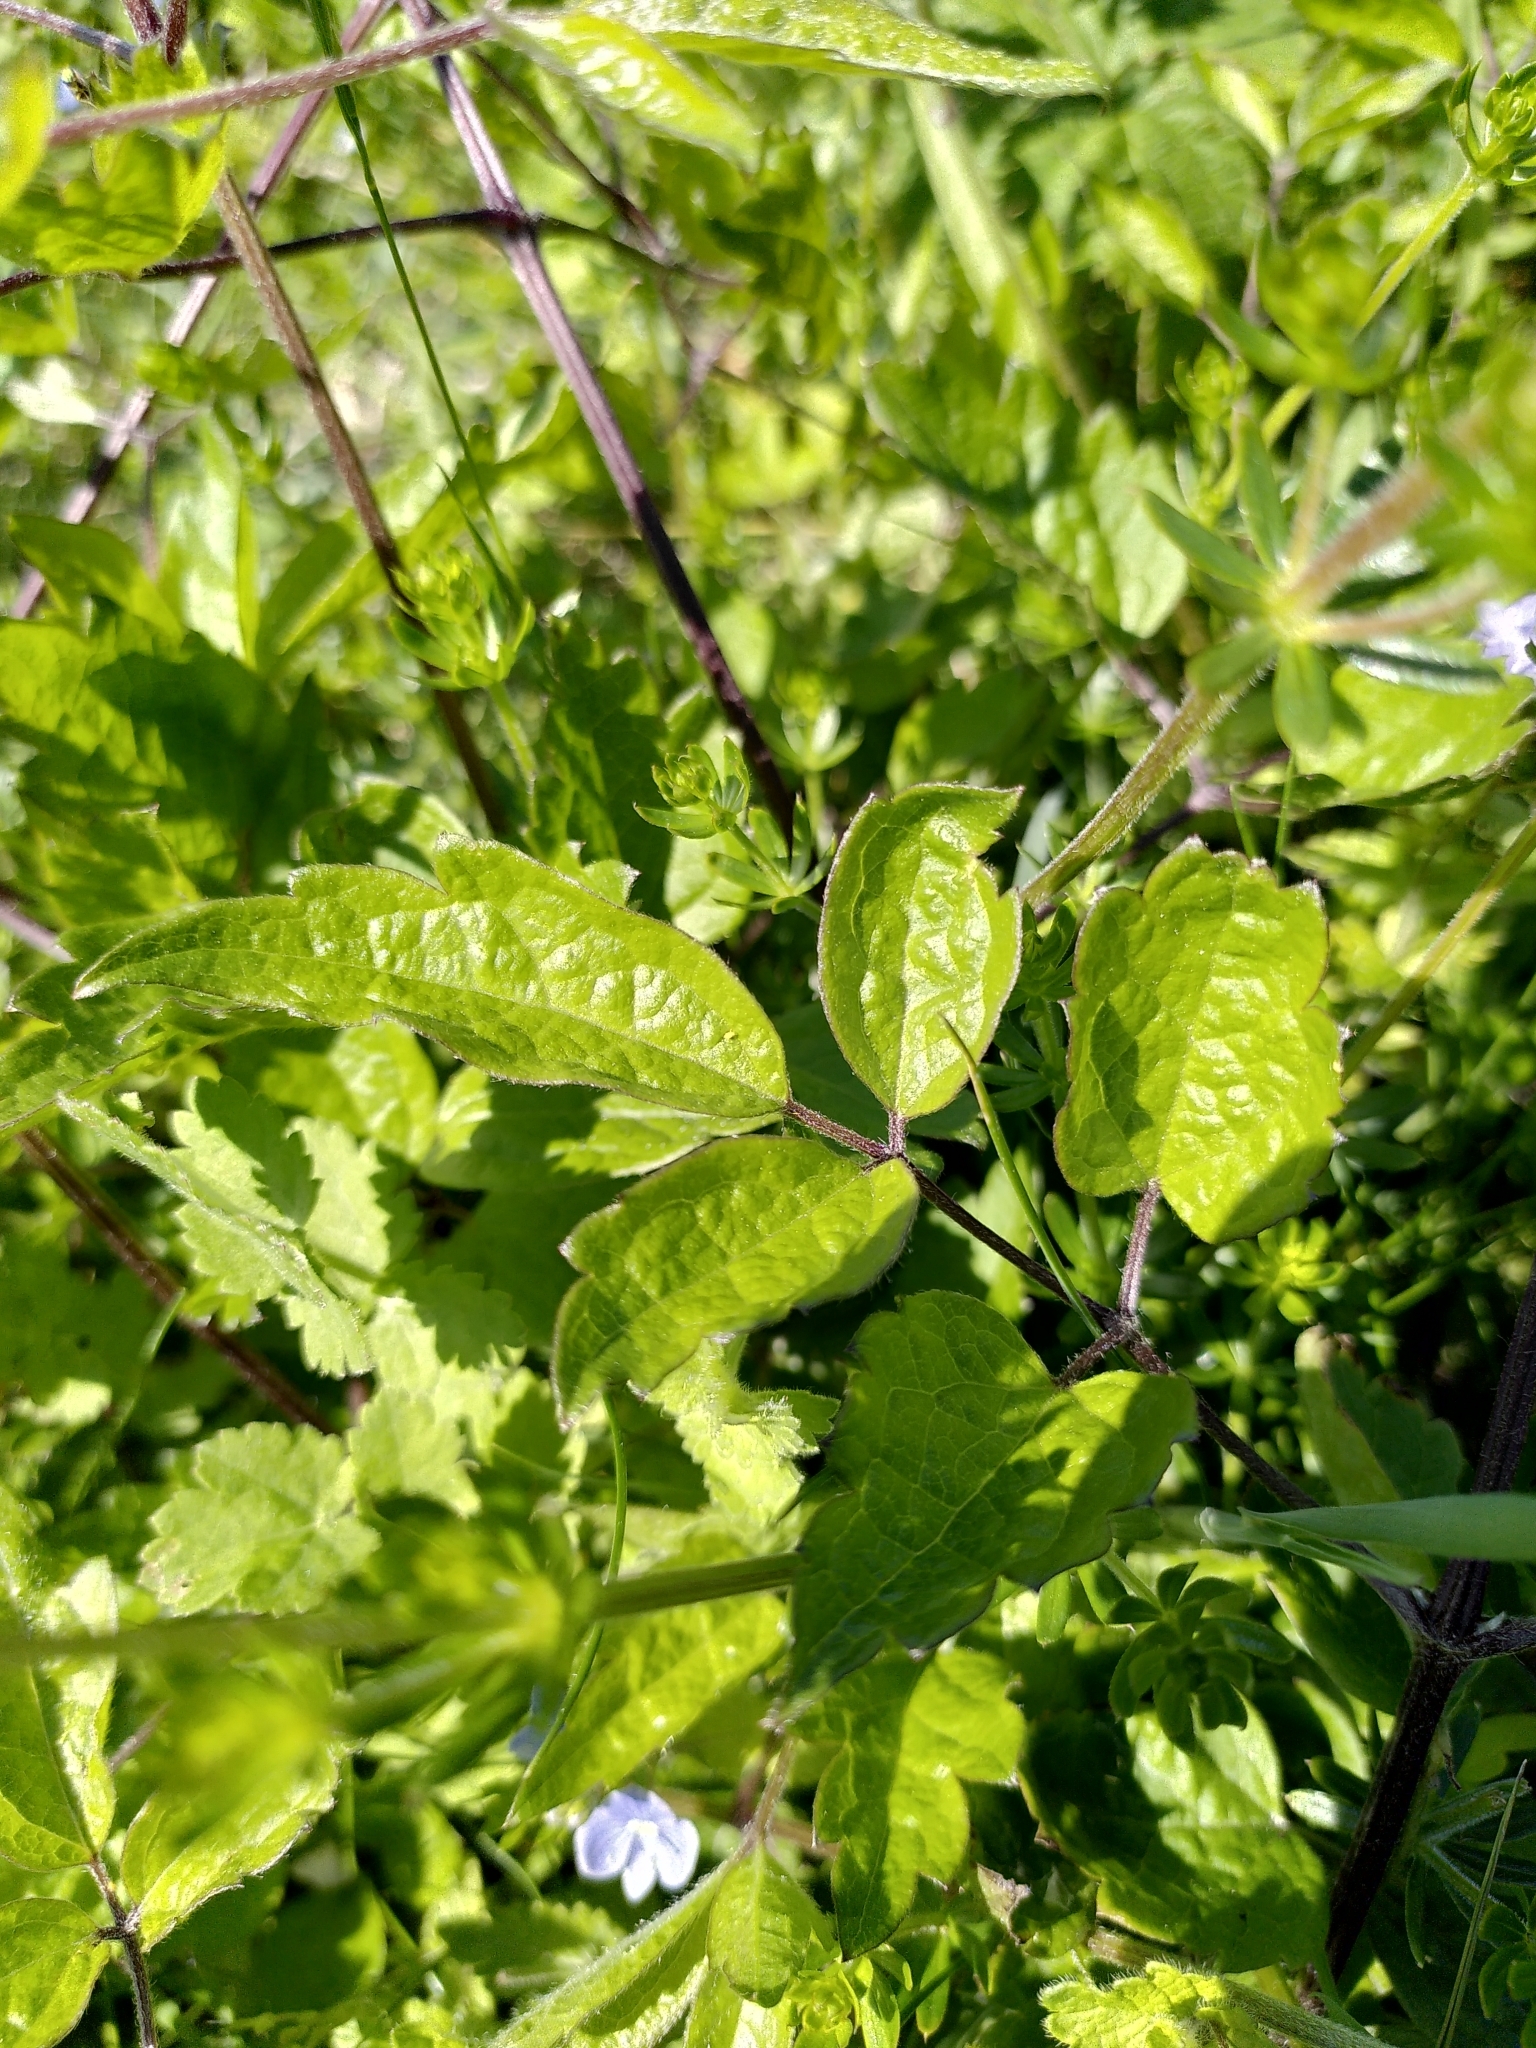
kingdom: Plantae
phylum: Tracheophyta
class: Magnoliopsida
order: Ranunculales
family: Ranunculaceae
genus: Clematis
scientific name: Clematis vitalba
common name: Evergreen clematis
